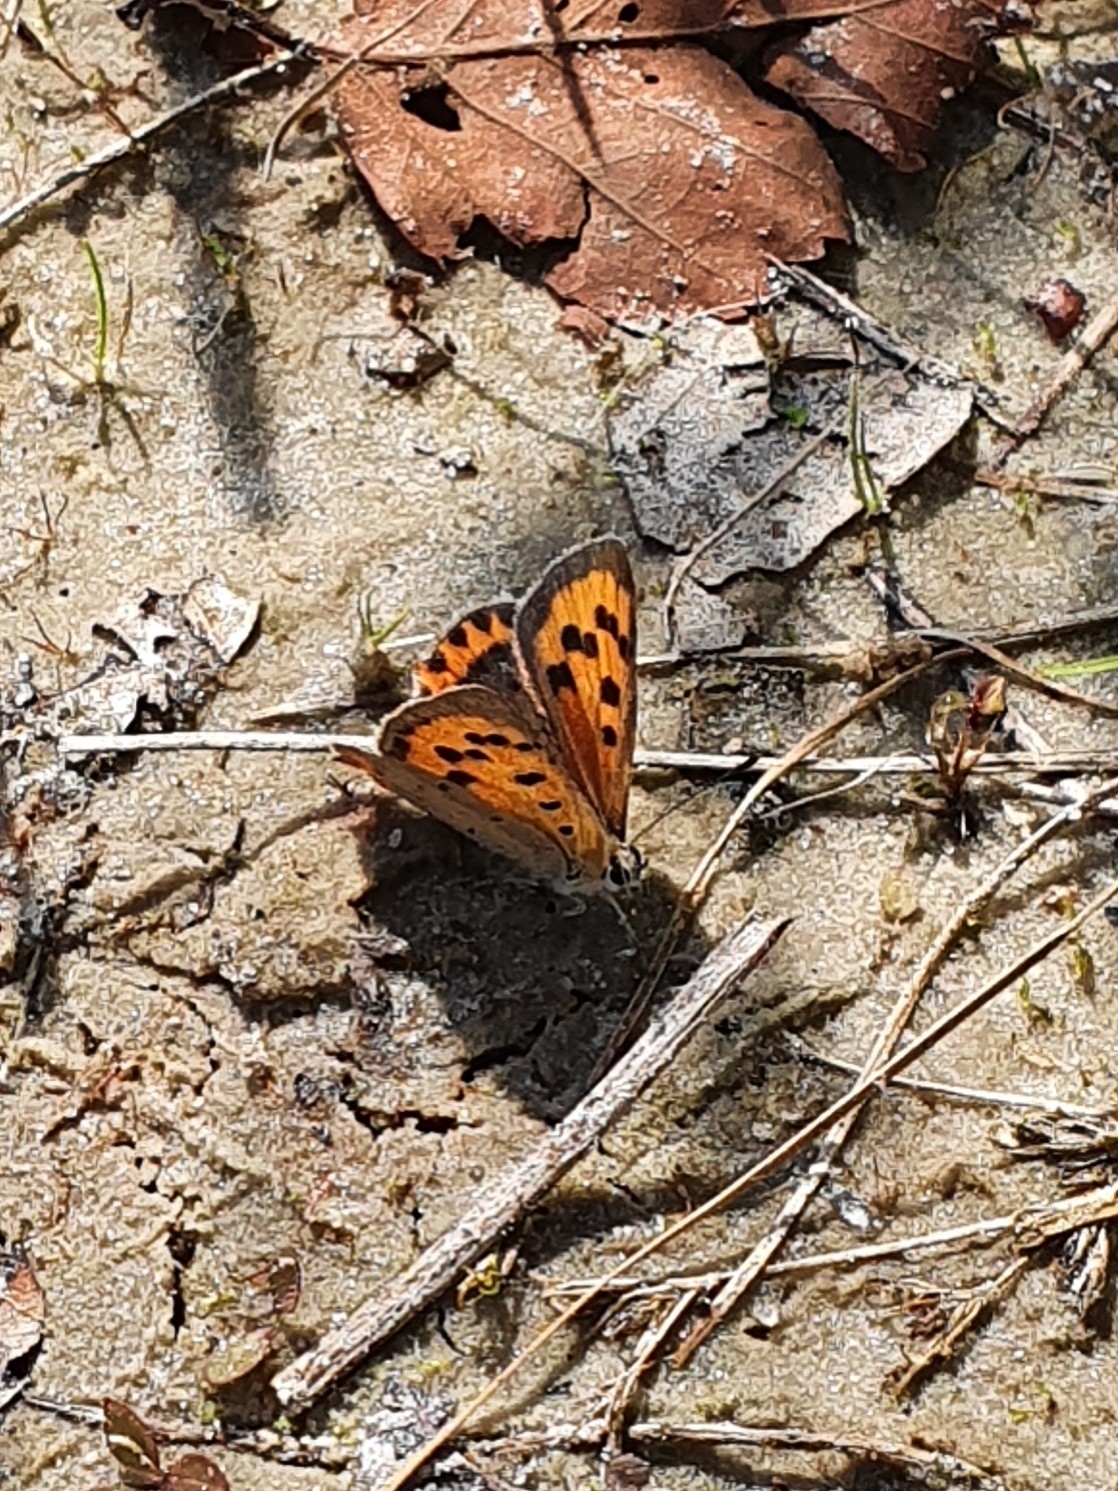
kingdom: Animalia
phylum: Arthropoda
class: Insecta
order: Lepidoptera
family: Lycaenidae
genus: Lycaena
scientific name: Lycaena phlaeas
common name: Small copper
